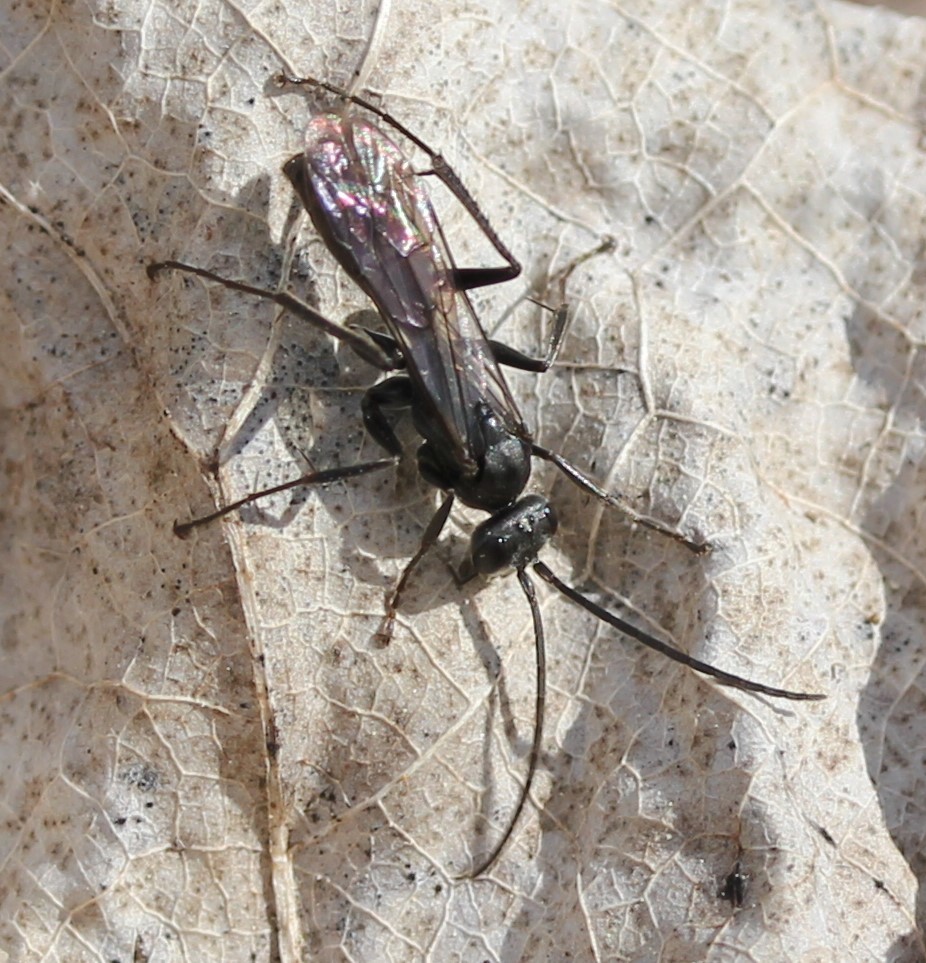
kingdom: Animalia
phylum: Arthropoda
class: Insecta
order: Hymenoptera
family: Pompilidae
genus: Priocnemis
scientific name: Priocnemis minorata
